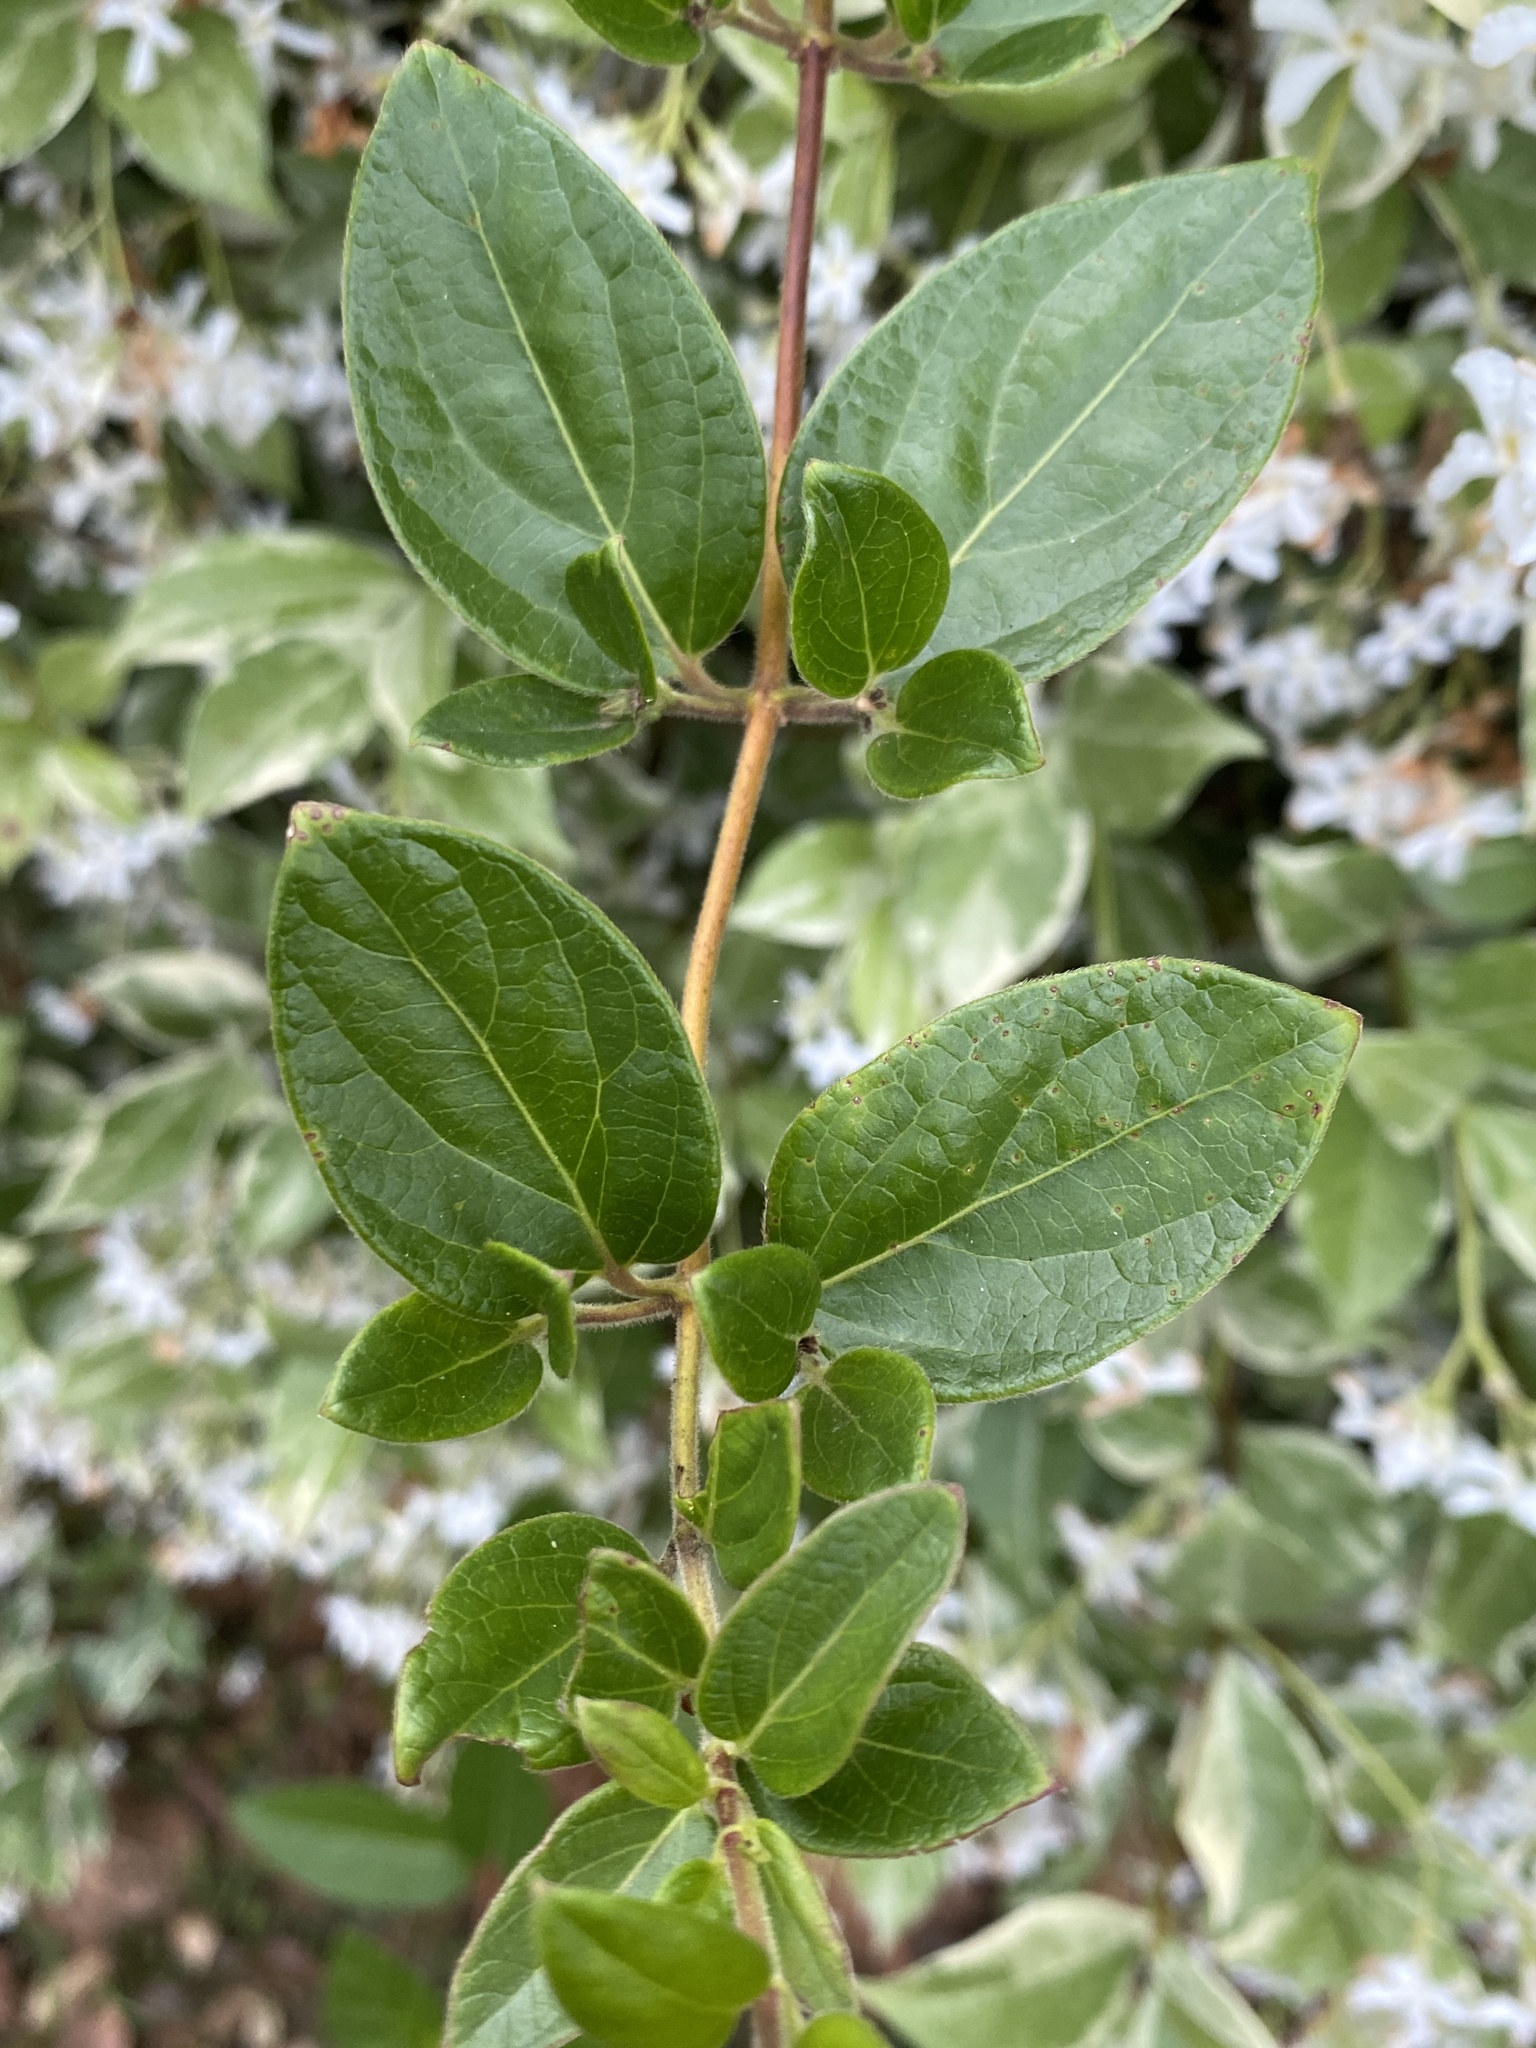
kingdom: Plantae
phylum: Tracheophyta
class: Magnoliopsida
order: Dipsacales
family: Caprifoliaceae
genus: Lonicera
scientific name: Lonicera japonica
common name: Japanese honeysuckle
